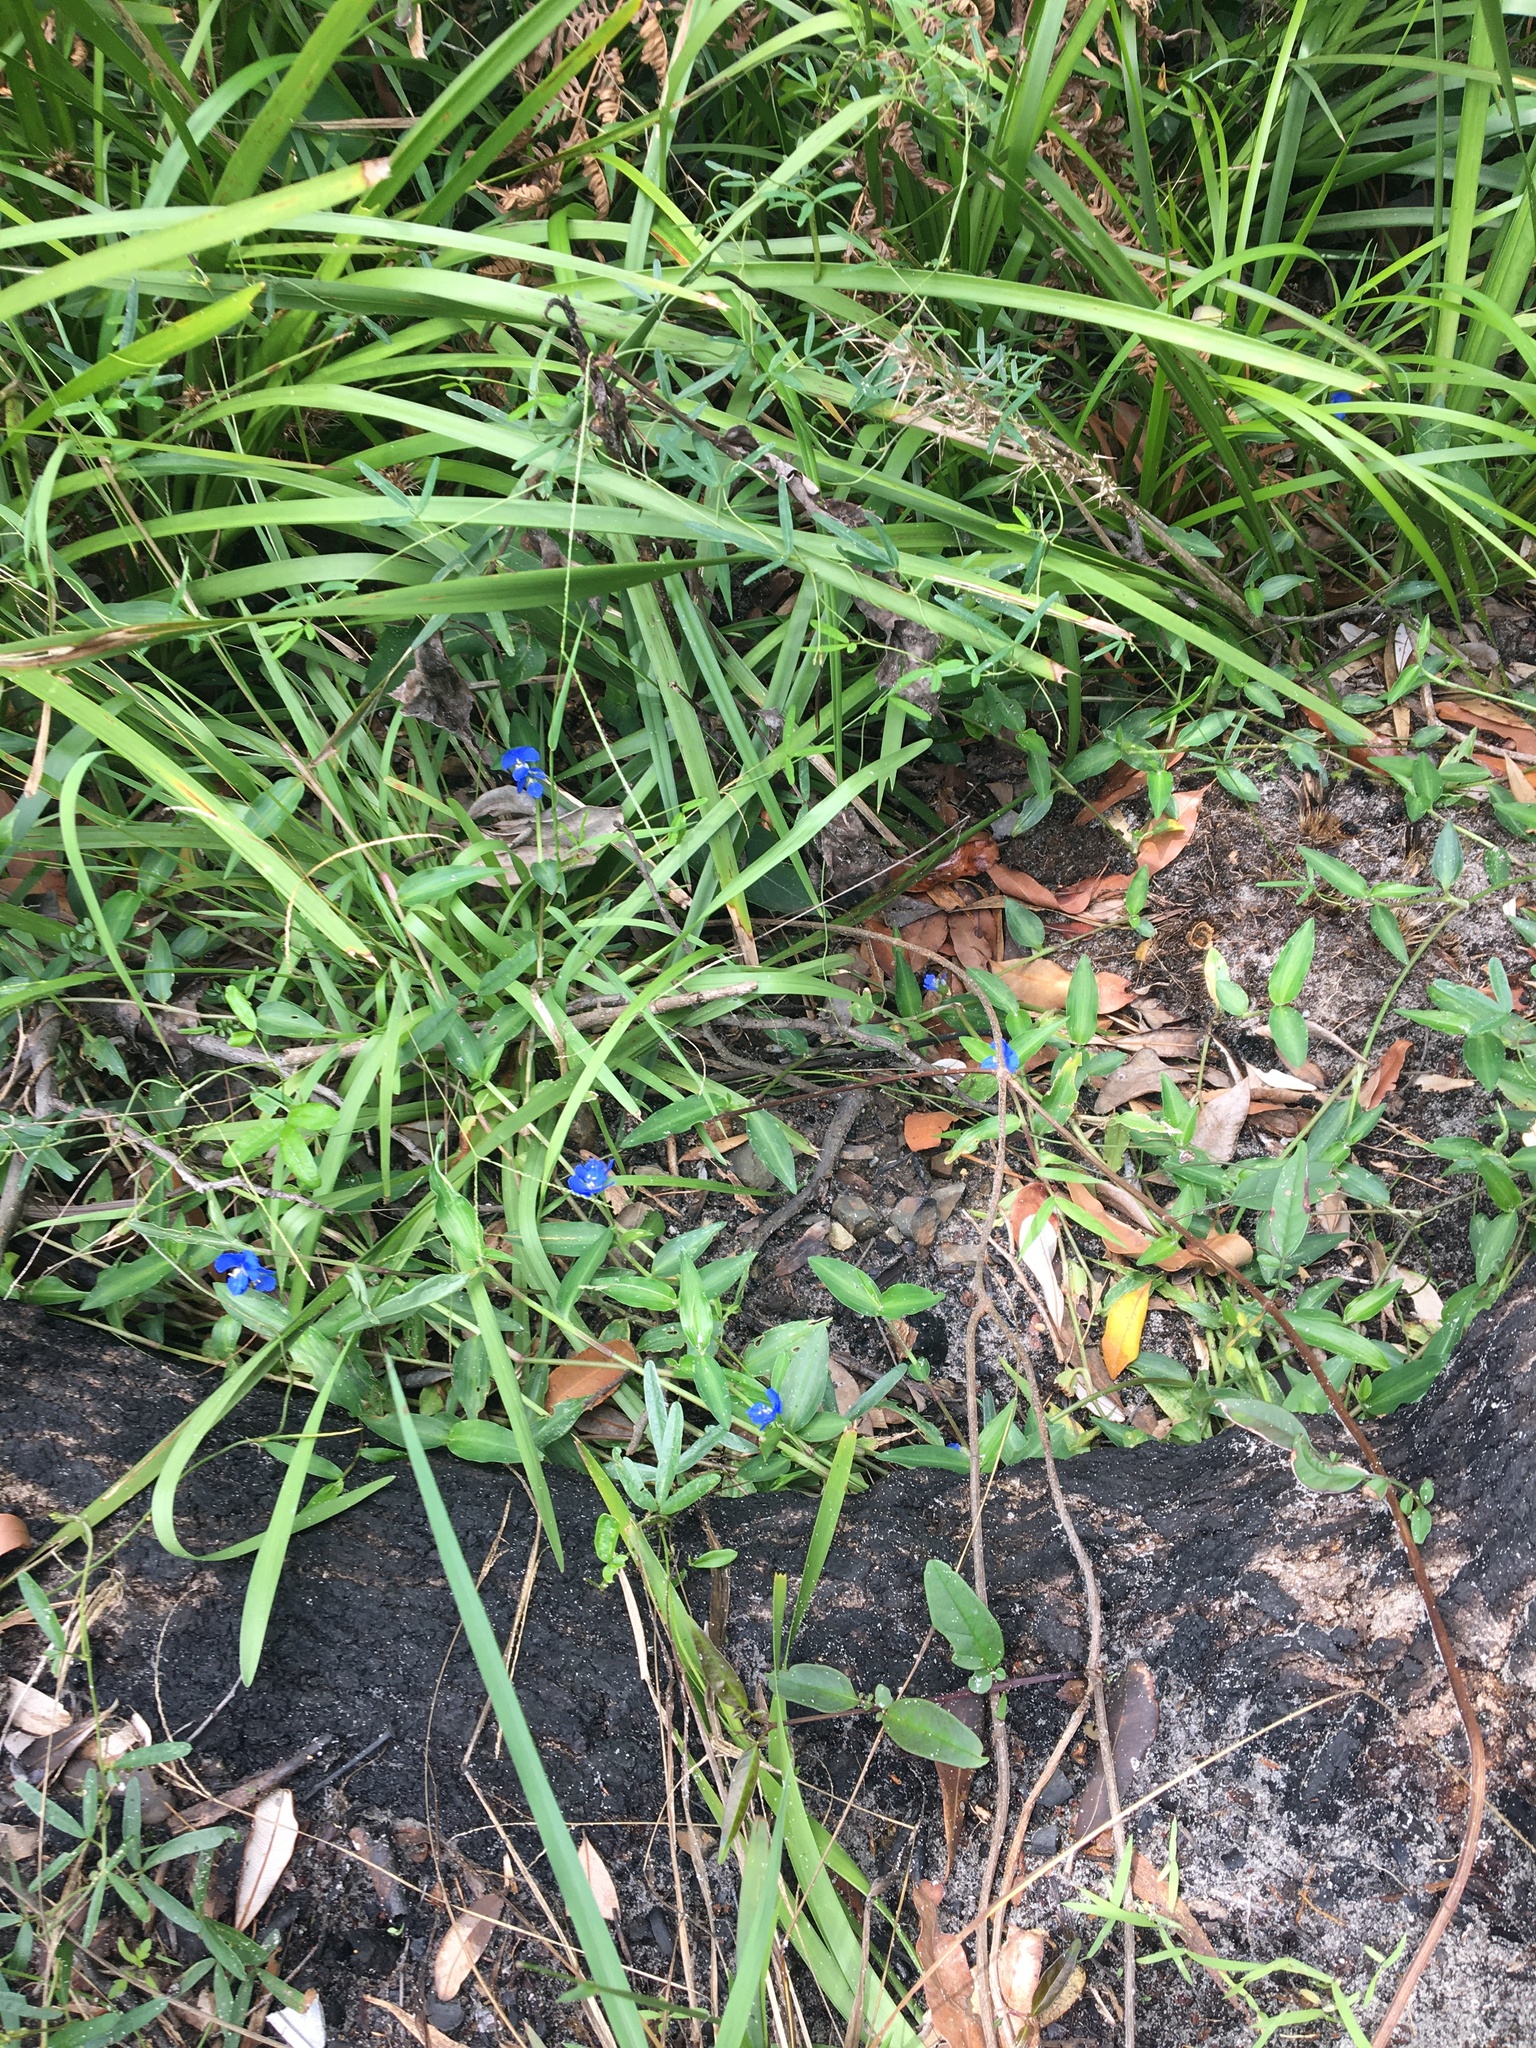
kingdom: Plantae
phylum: Tracheophyta
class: Liliopsida
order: Commelinales
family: Commelinaceae
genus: Commelina
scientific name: Commelina cyanea
